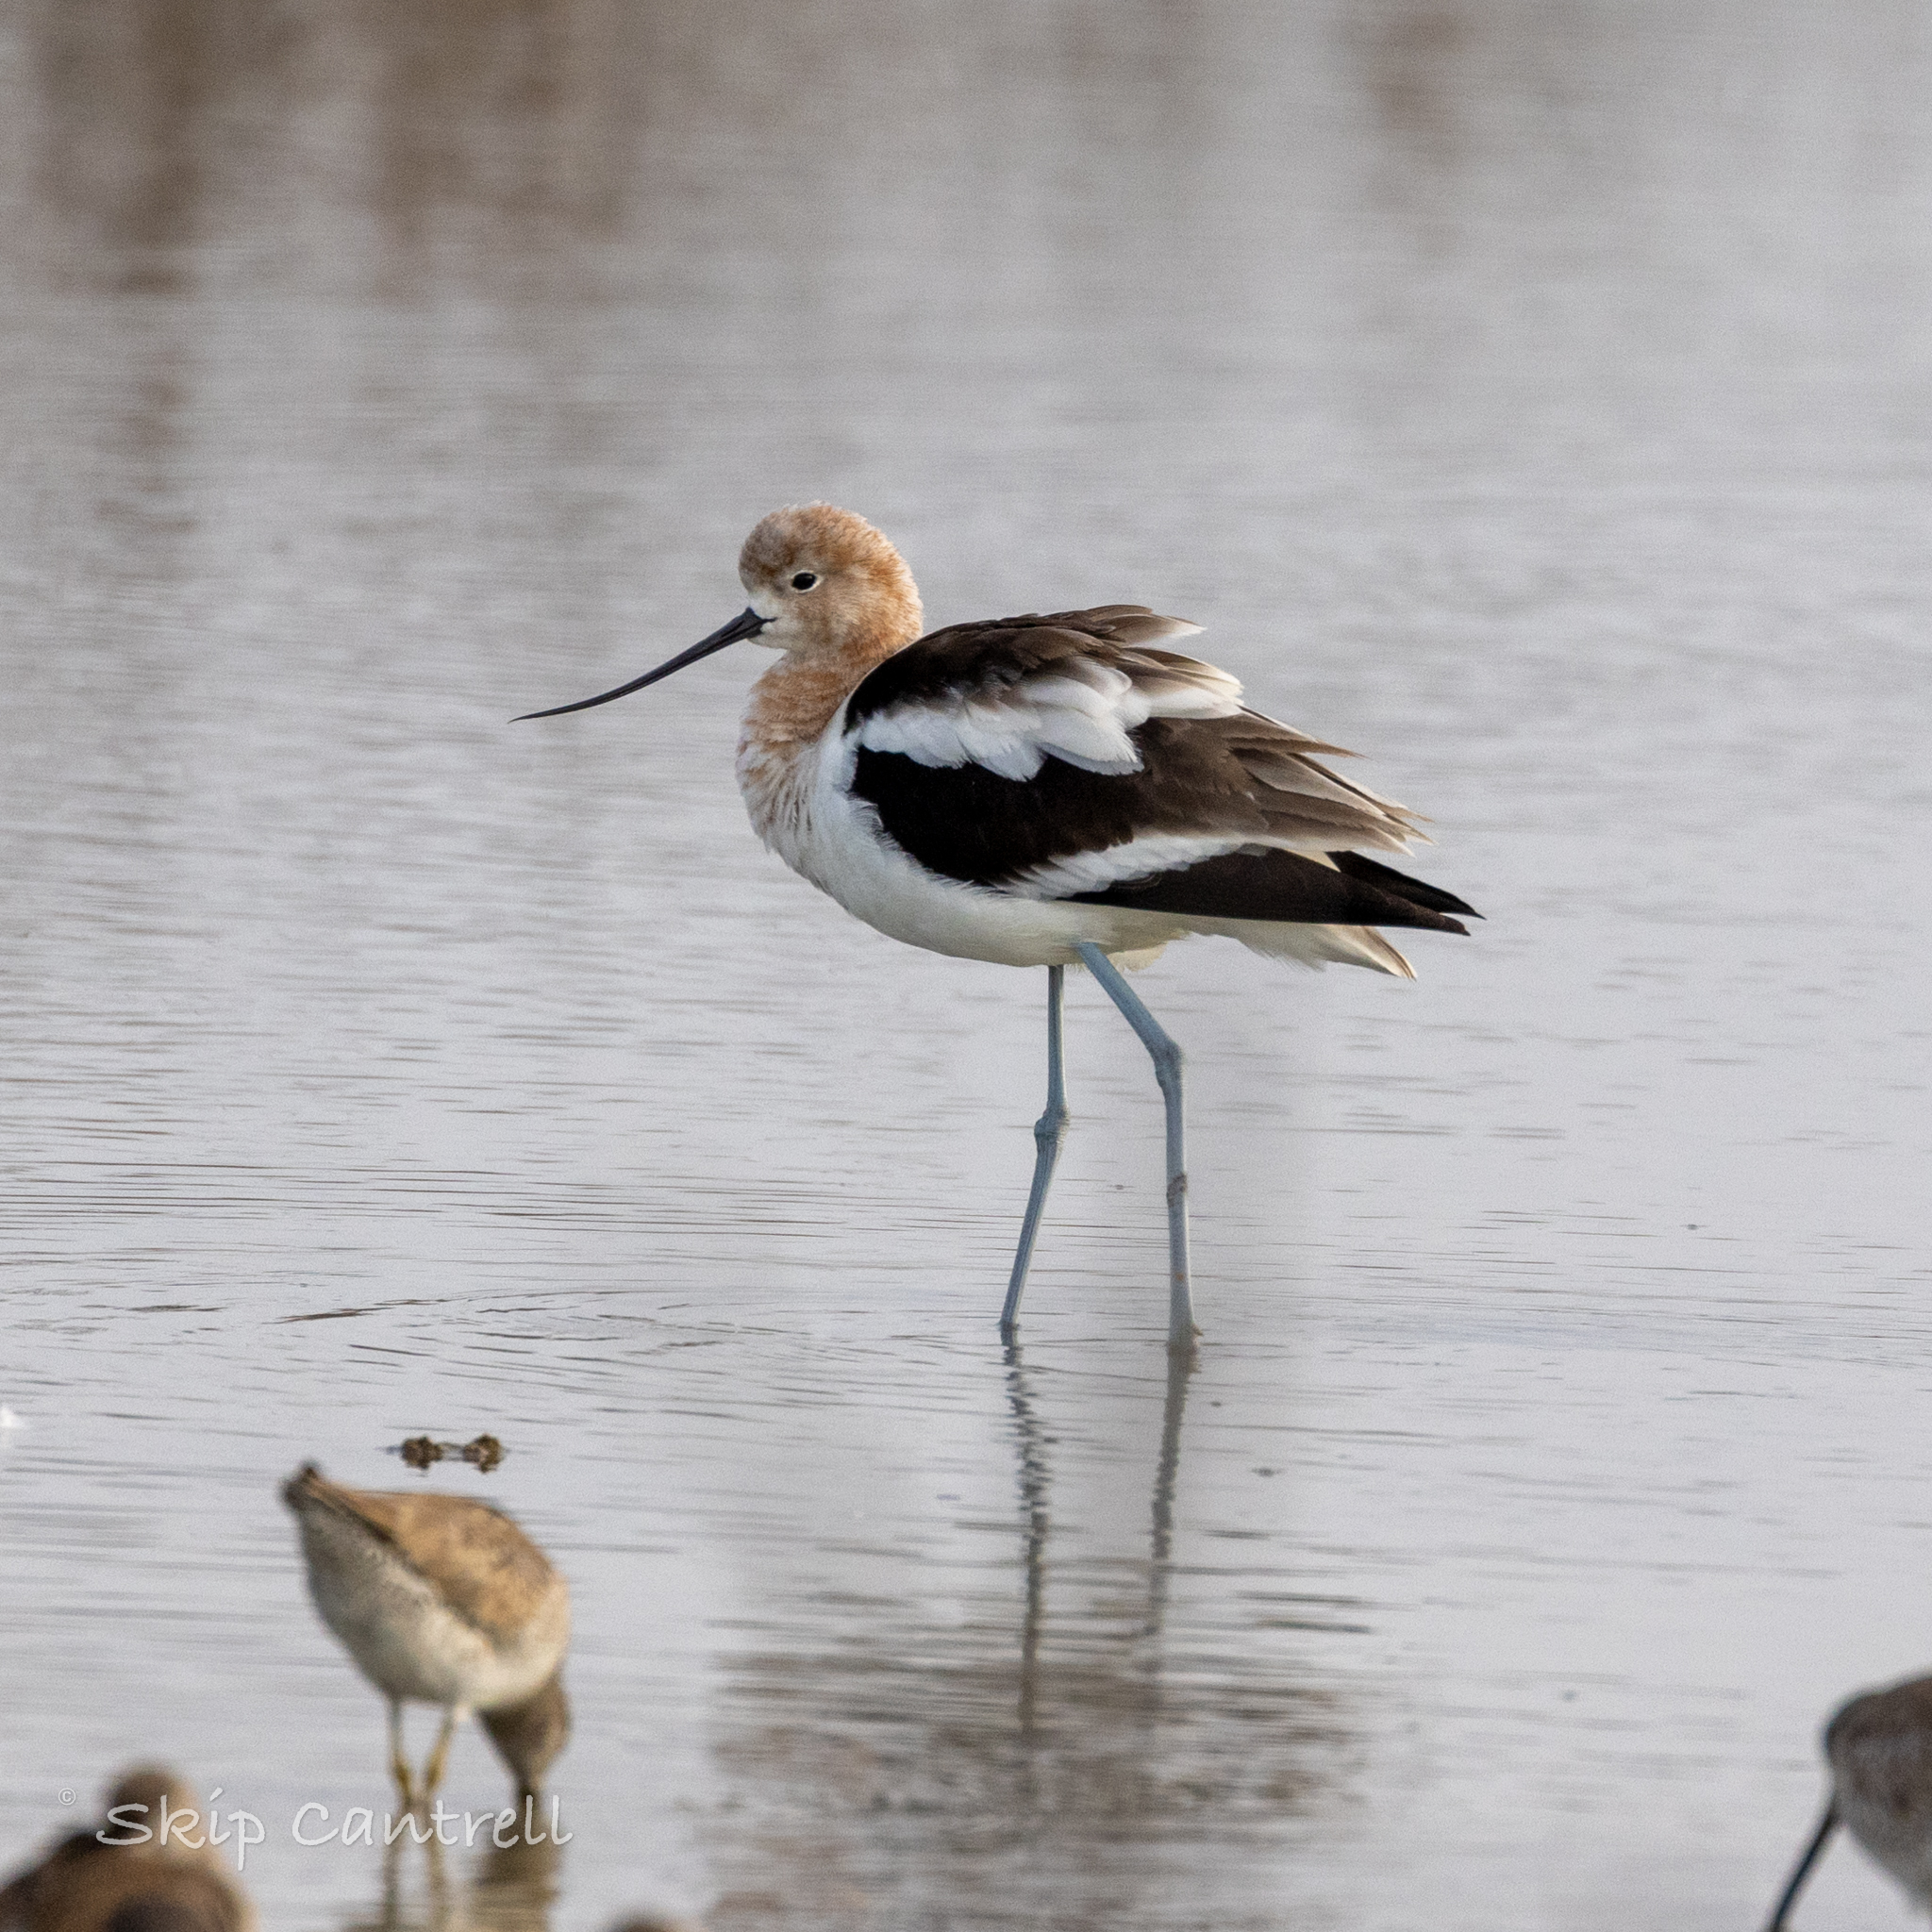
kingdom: Animalia
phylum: Chordata
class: Aves
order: Charadriiformes
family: Recurvirostridae
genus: Recurvirostra
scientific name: Recurvirostra americana
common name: American avocet
